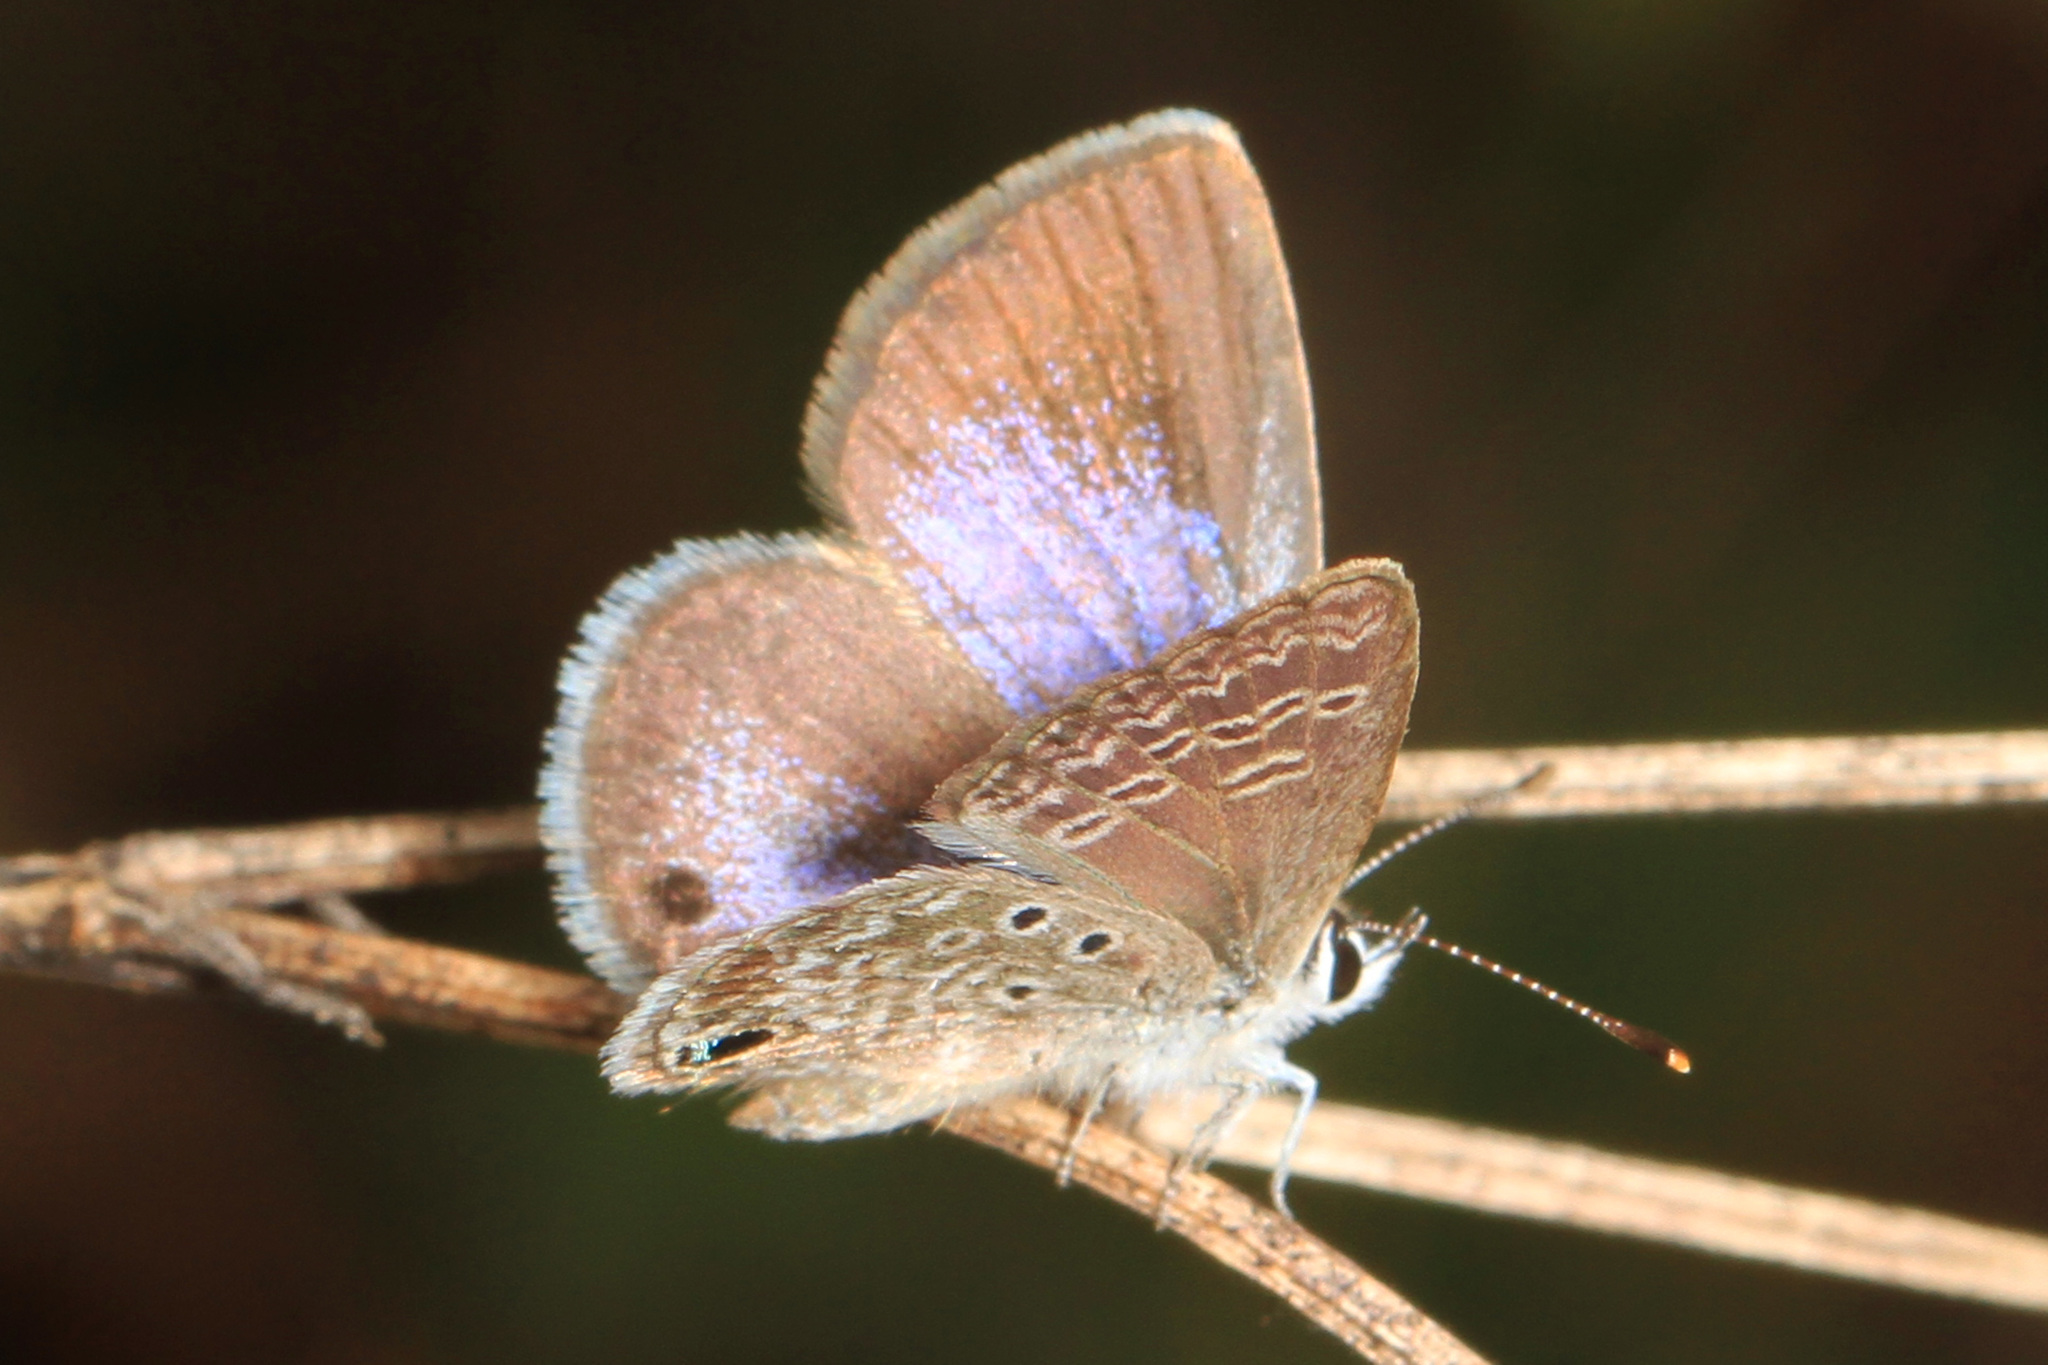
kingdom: Animalia
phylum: Arthropoda
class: Insecta
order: Lepidoptera
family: Lycaenidae
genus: Hemiargus
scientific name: Hemiargus ceraunus
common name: Ceraunus blue
